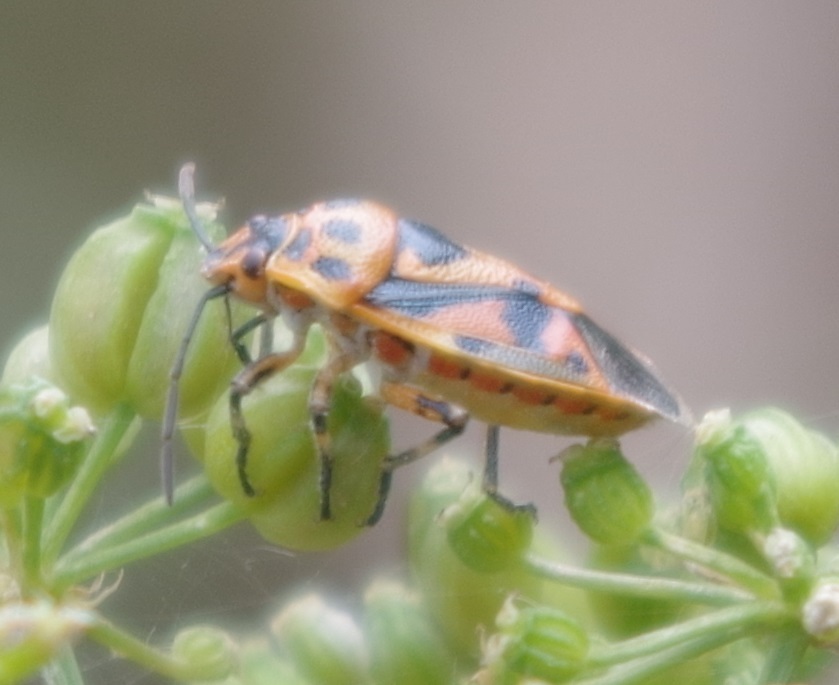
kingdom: Animalia
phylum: Arthropoda
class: Insecta
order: Hemiptera
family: Pentatomidae
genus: Eurydema
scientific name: Eurydema ornata
